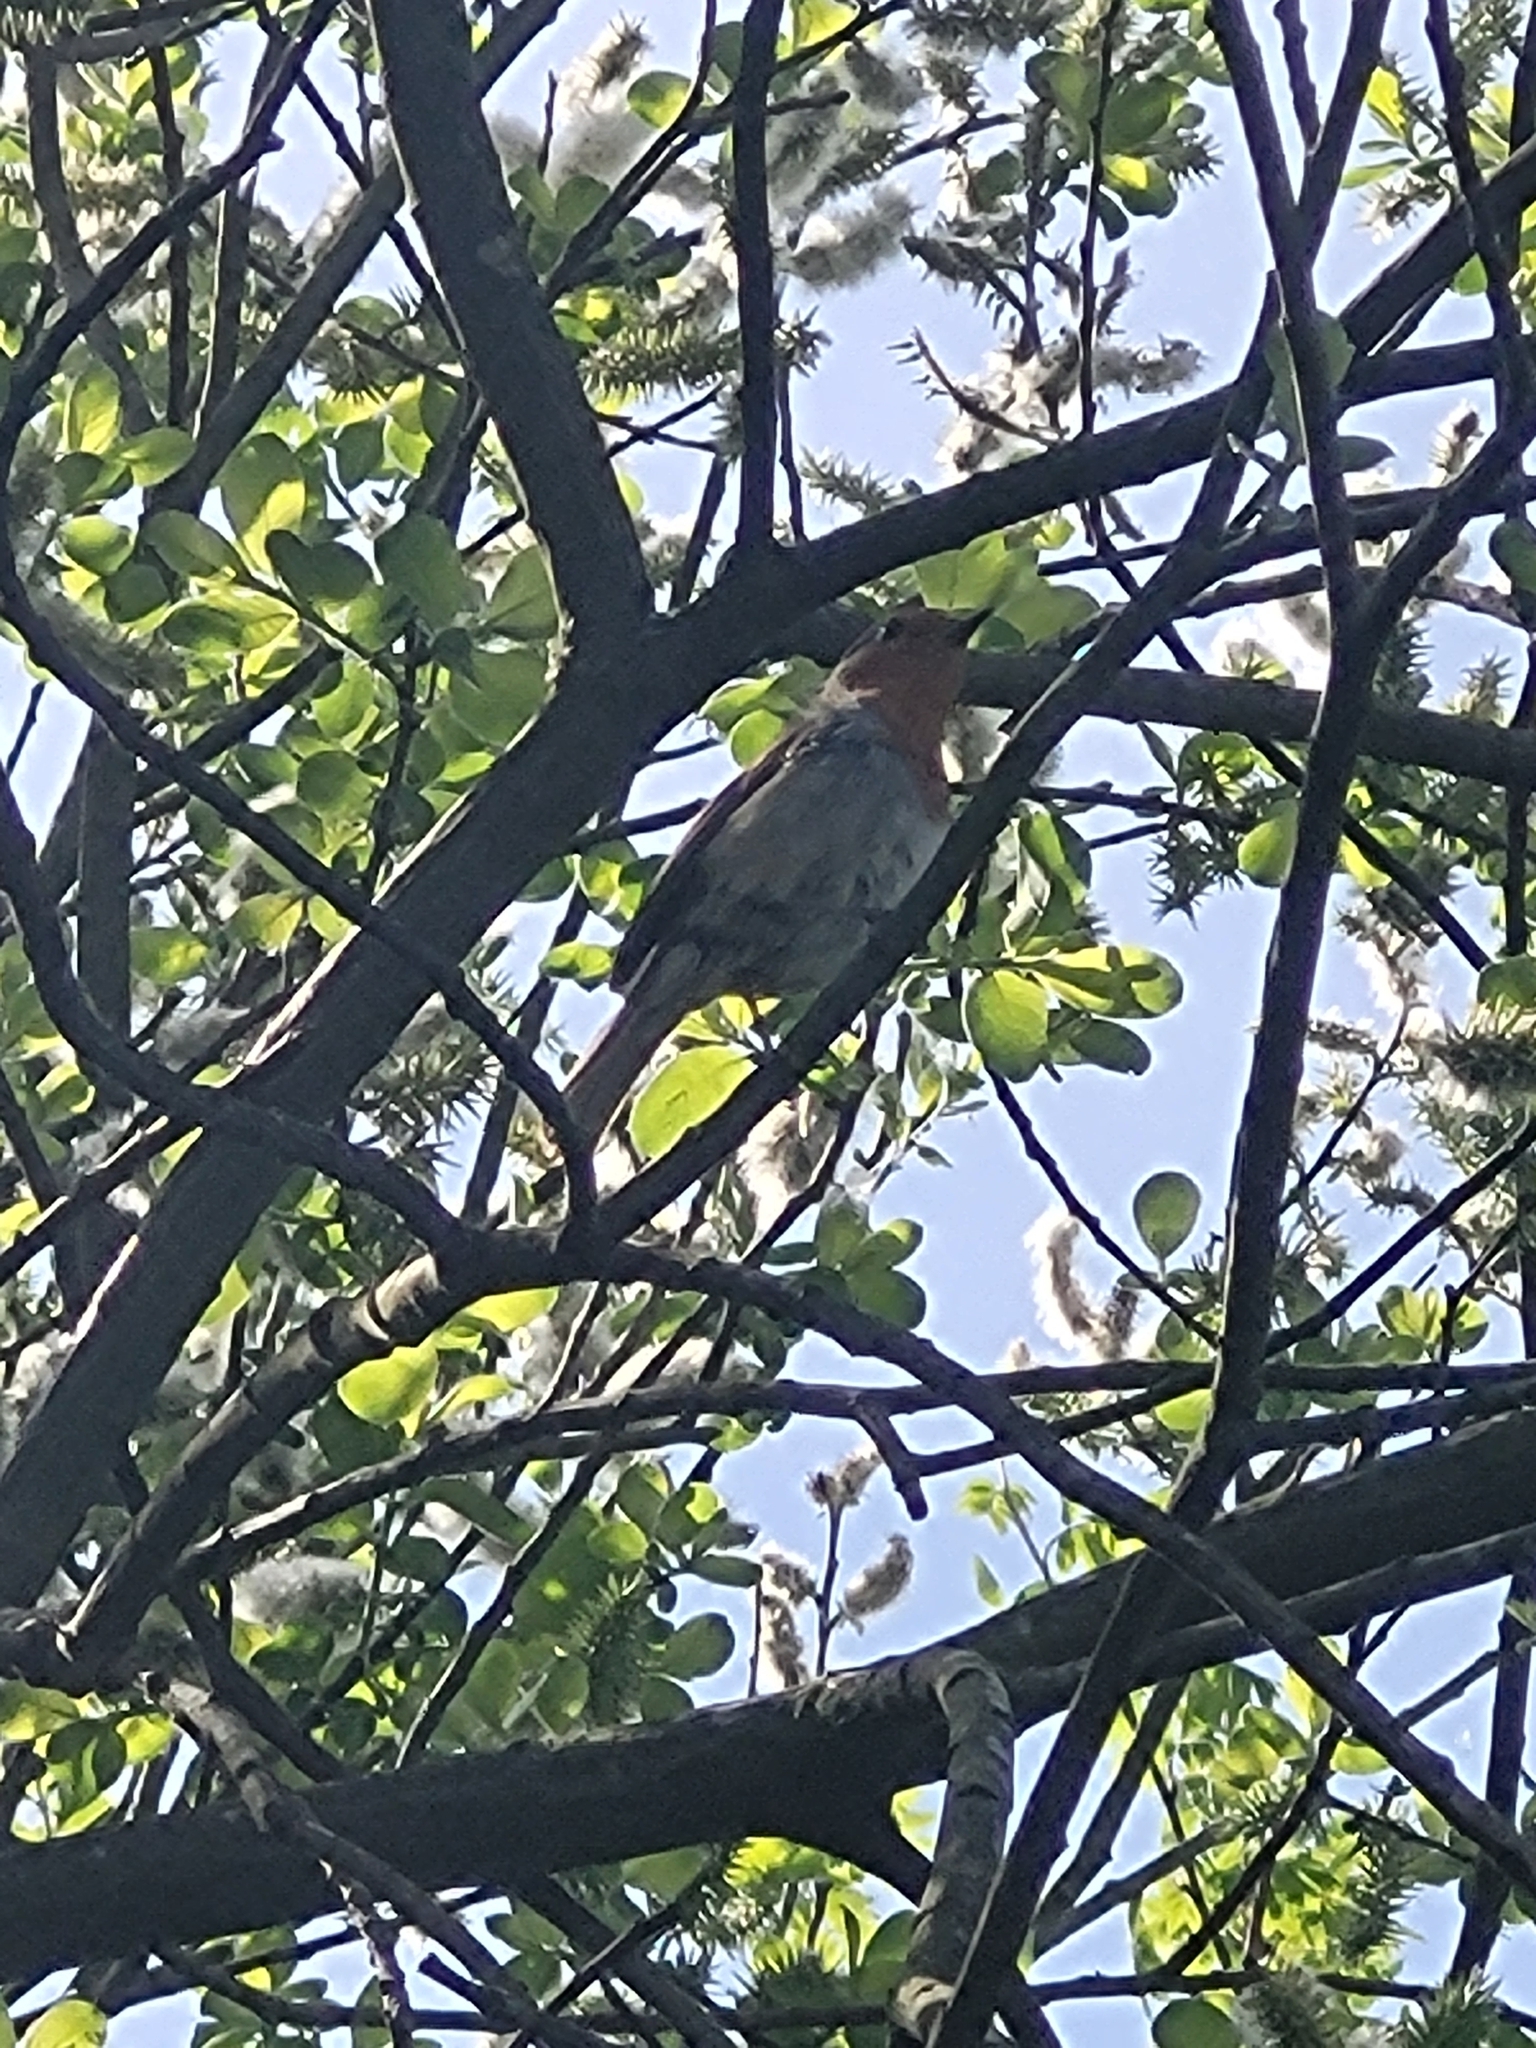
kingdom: Animalia
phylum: Chordata
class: Aves
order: Passeriformes
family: Muscicapidae
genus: Erithacus
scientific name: Erithacus rubecula
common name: European robin
